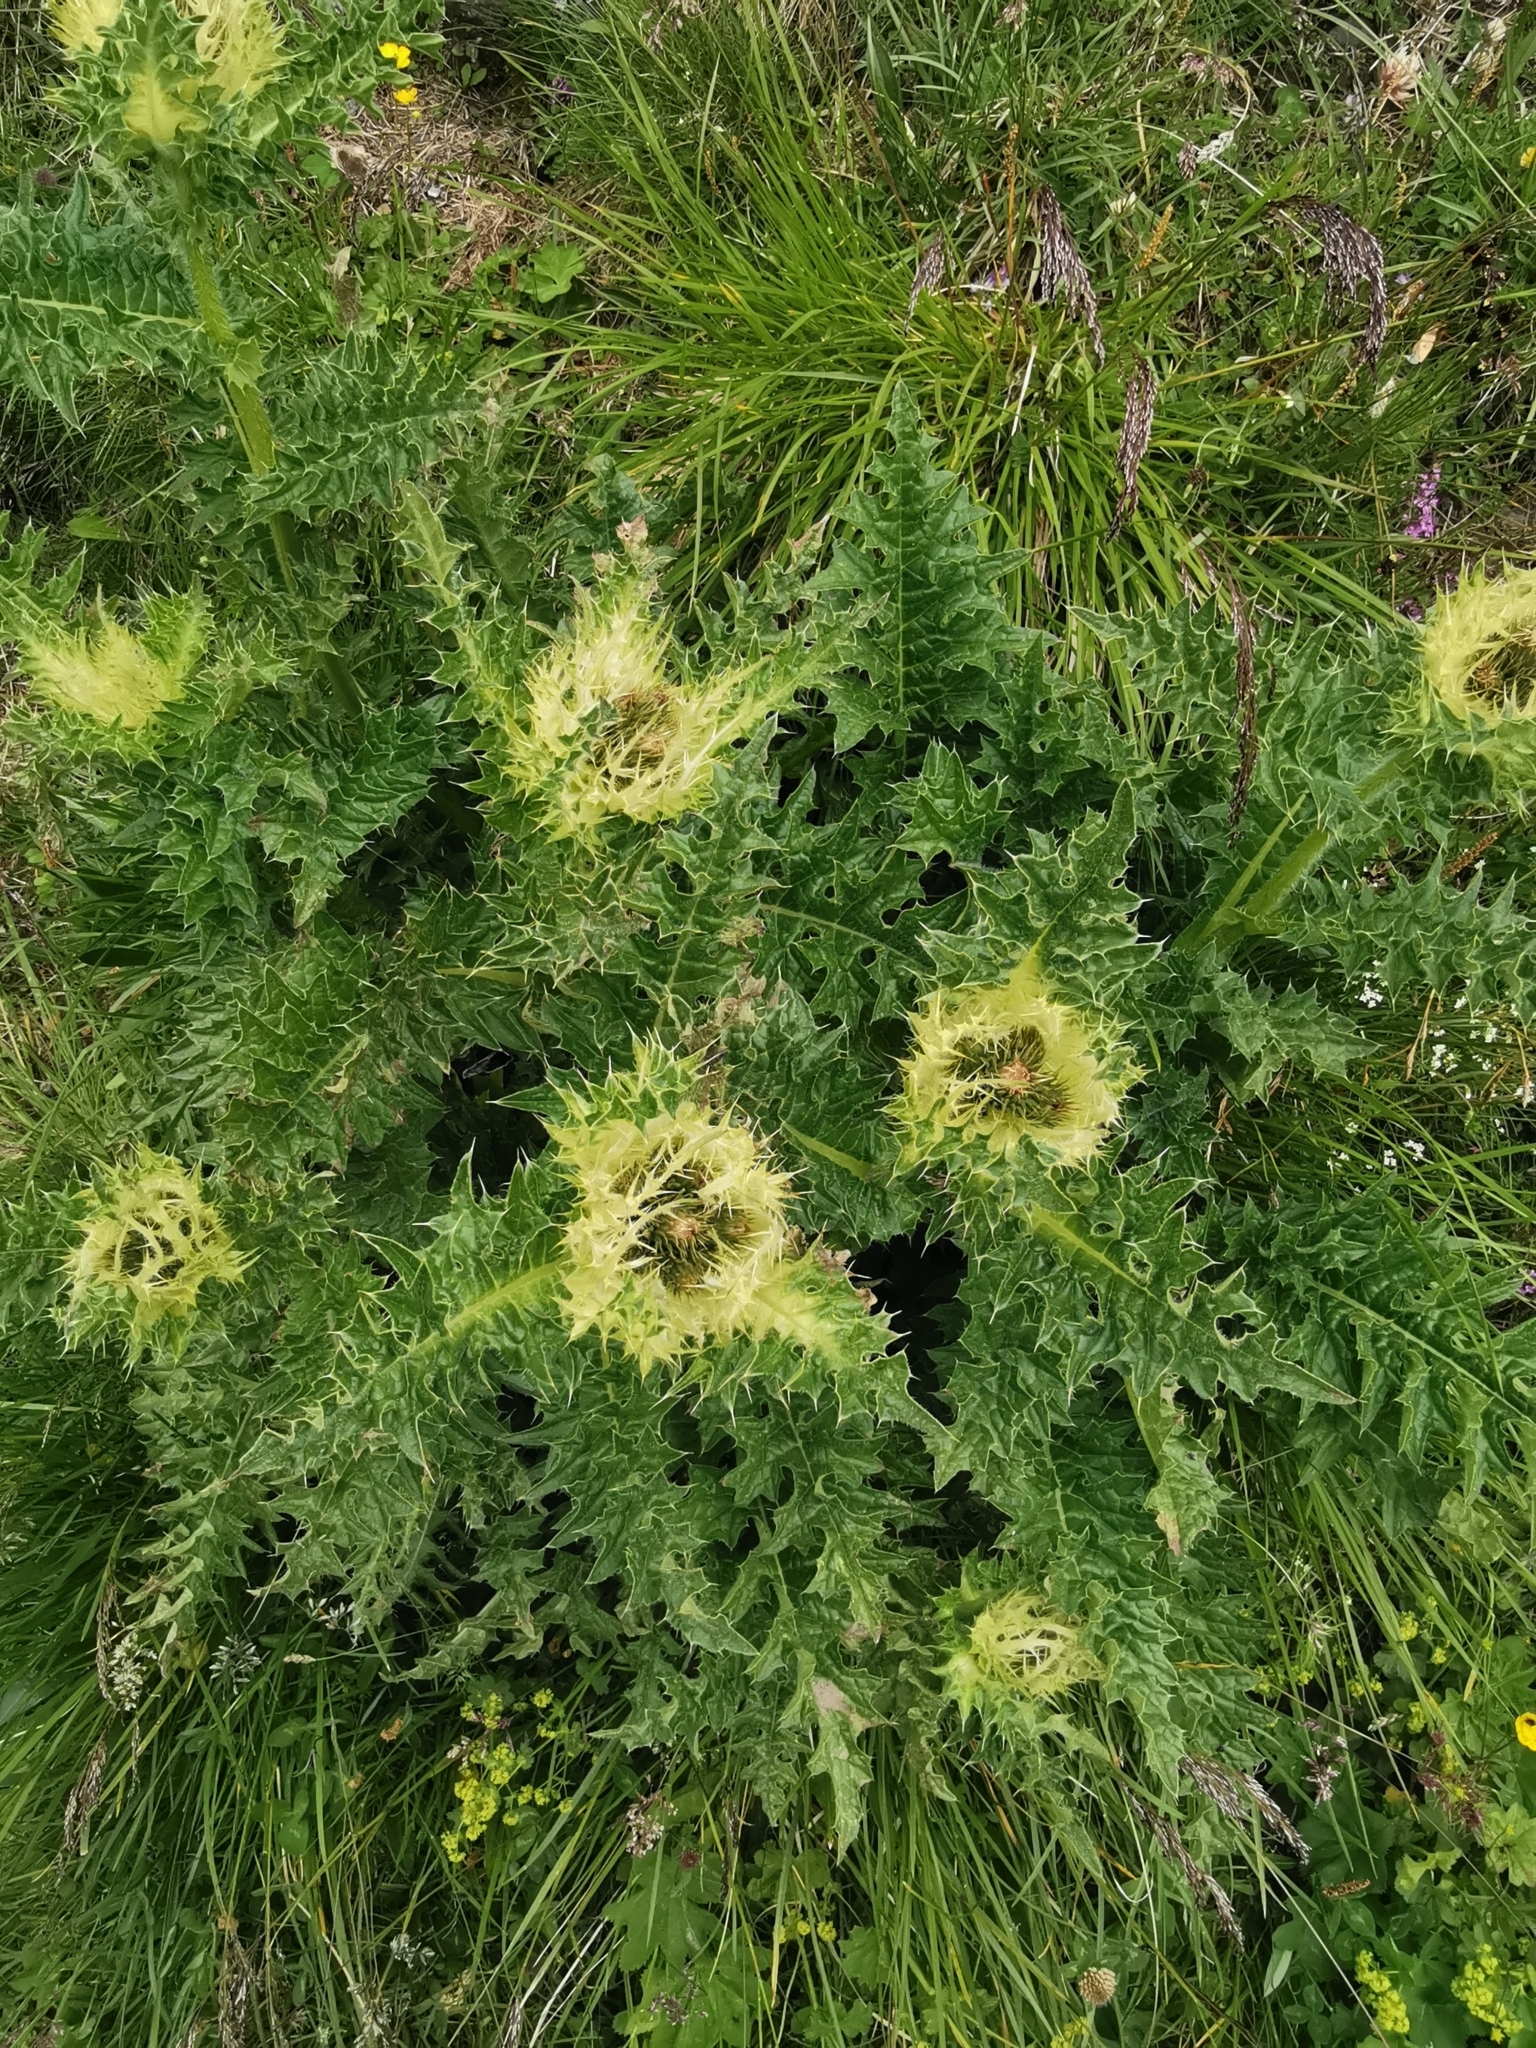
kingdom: Plantae
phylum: Tracheophyta
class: Magnoliopsida
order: Asterales
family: Asteraceae
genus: Cirsium
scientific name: Cirsium spinosissimum
